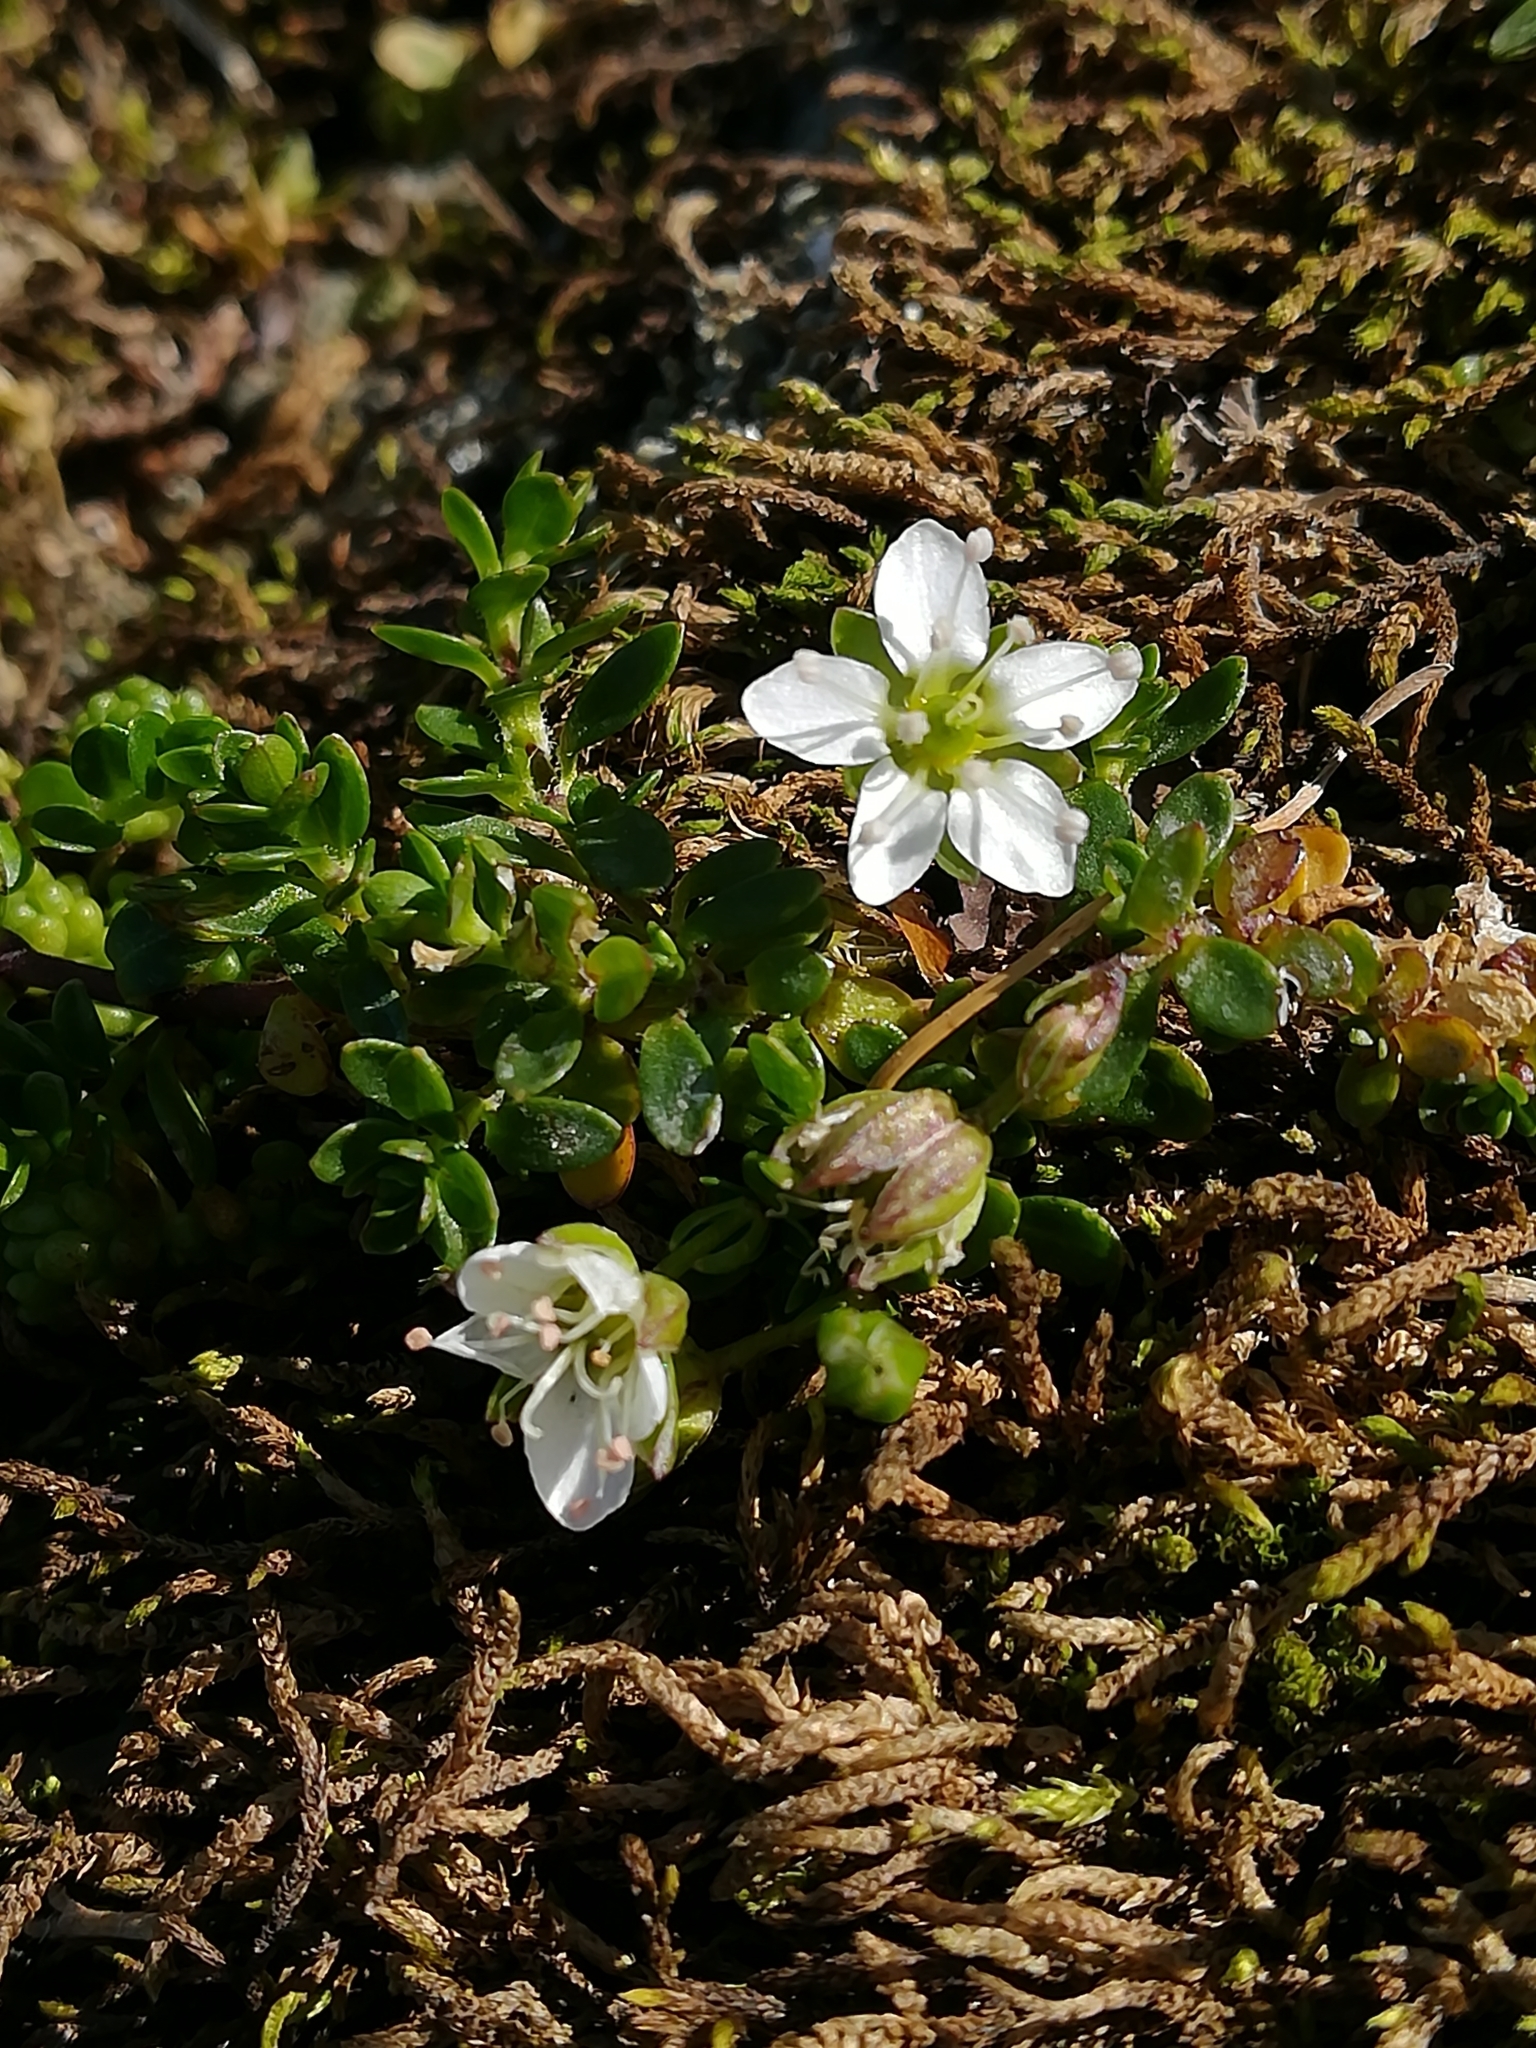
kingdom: Plantae
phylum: Tracheophyta
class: Magnoliopsida
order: Caryophyllales
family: Caryophyllaceae
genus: Arenaria
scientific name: Arenaria biflora
